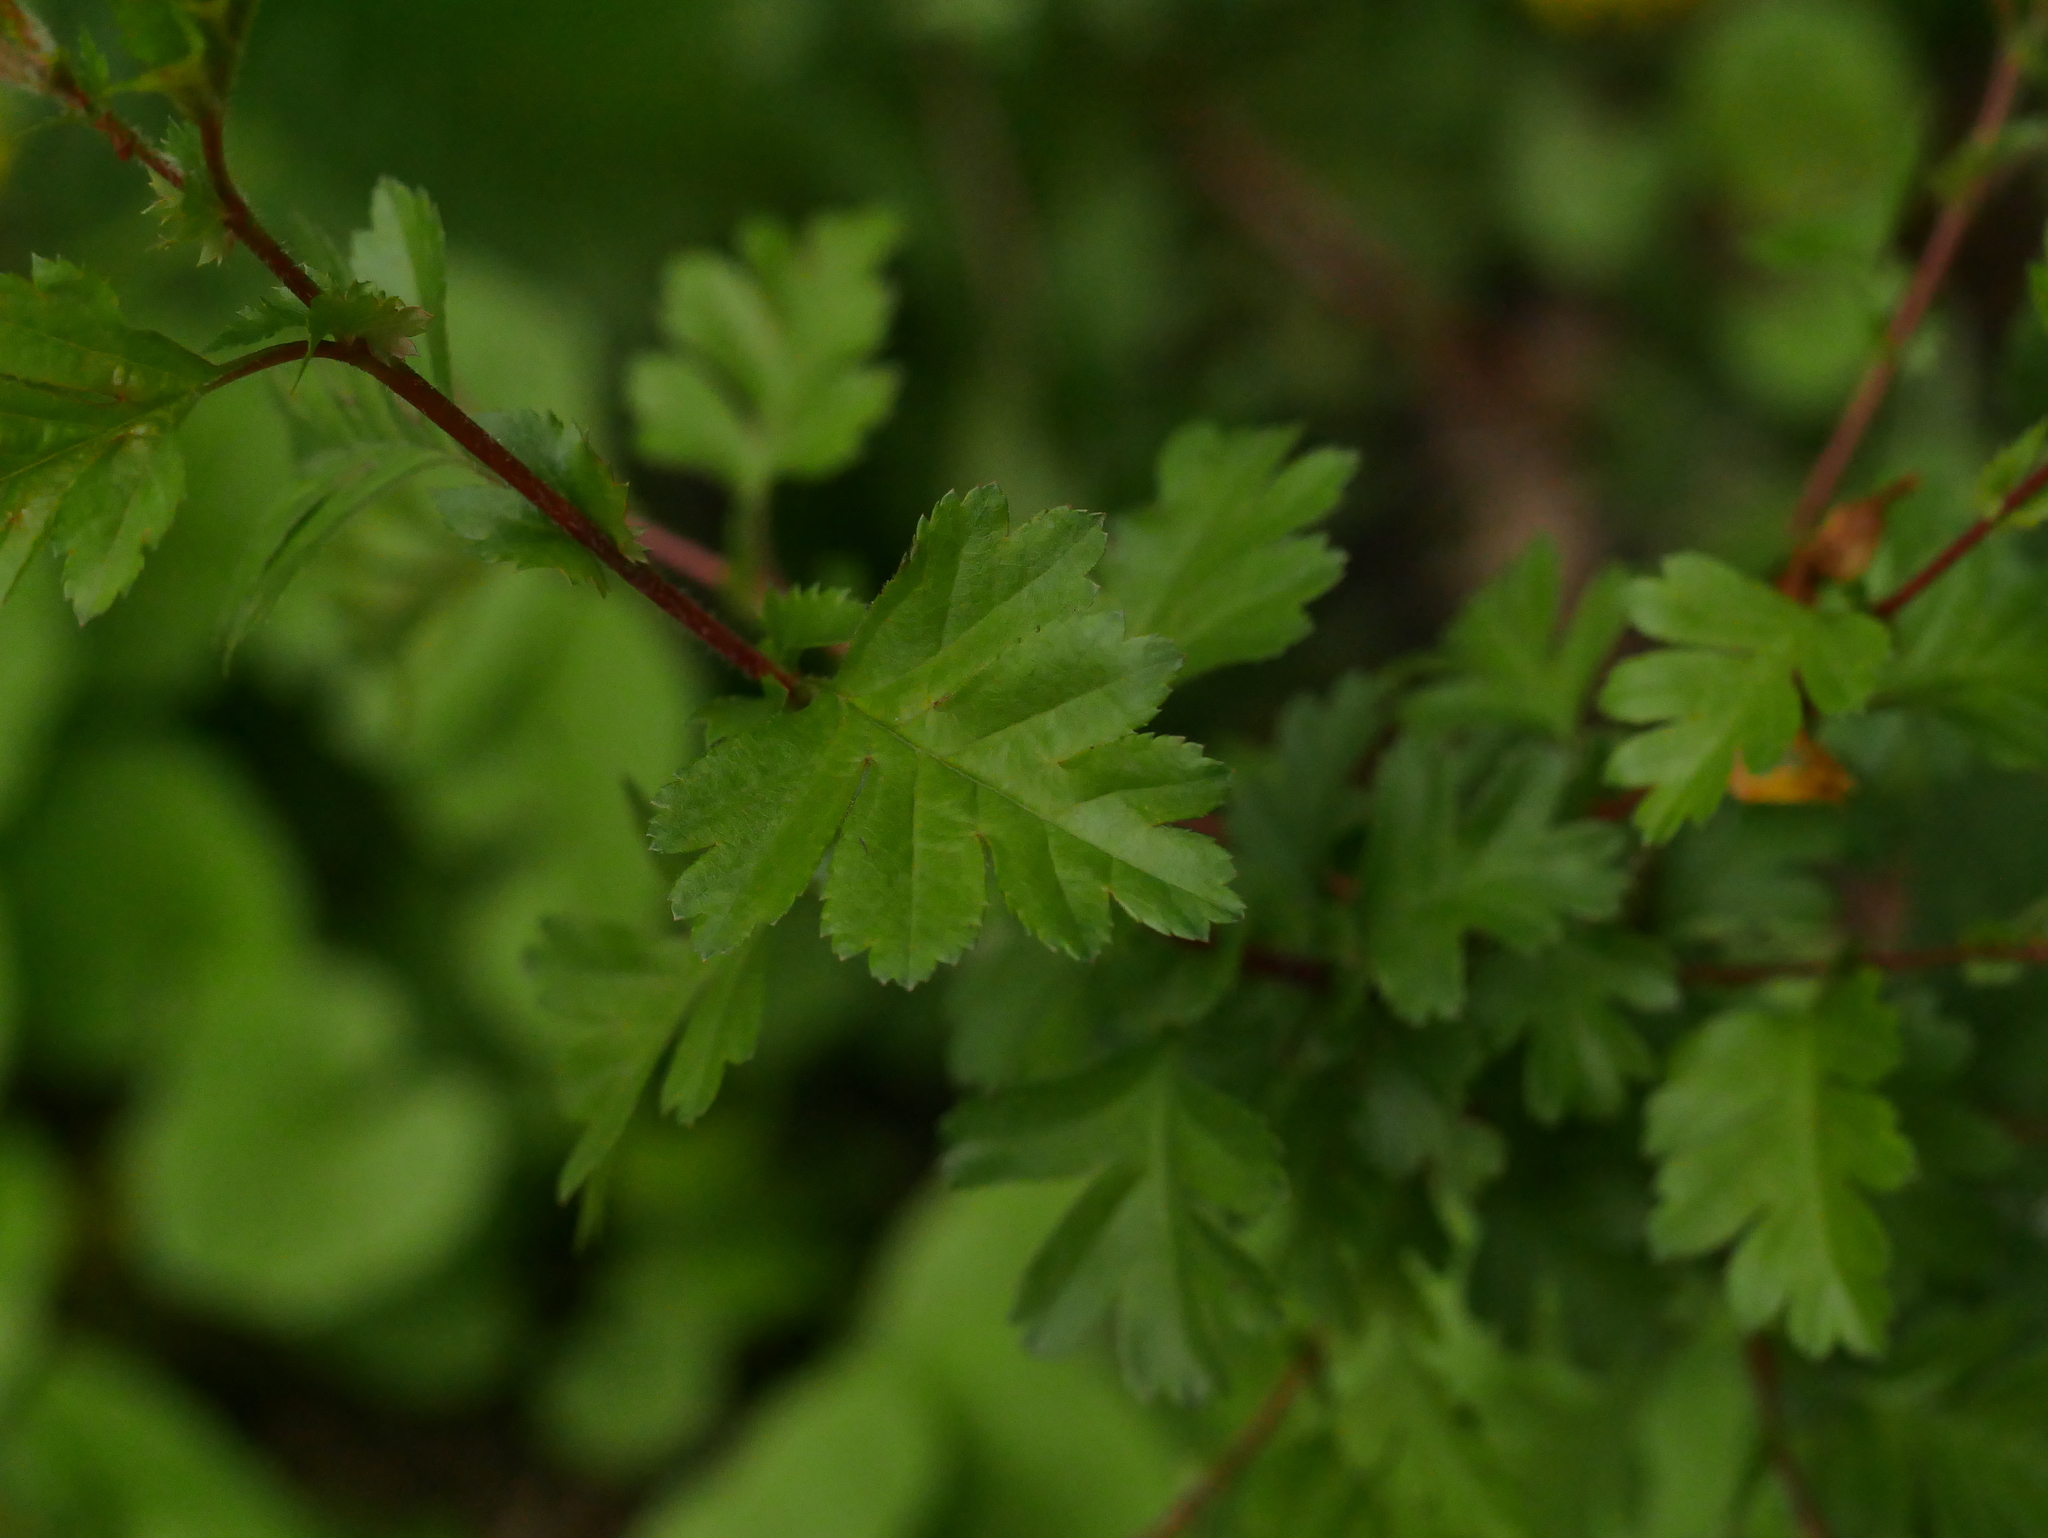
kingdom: Plantae
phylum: Tracheophyta
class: Magnoliopsida
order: Rosales
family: Rosaceae
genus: Crataegus
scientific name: Crataegus monogyna
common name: Hawthorn
